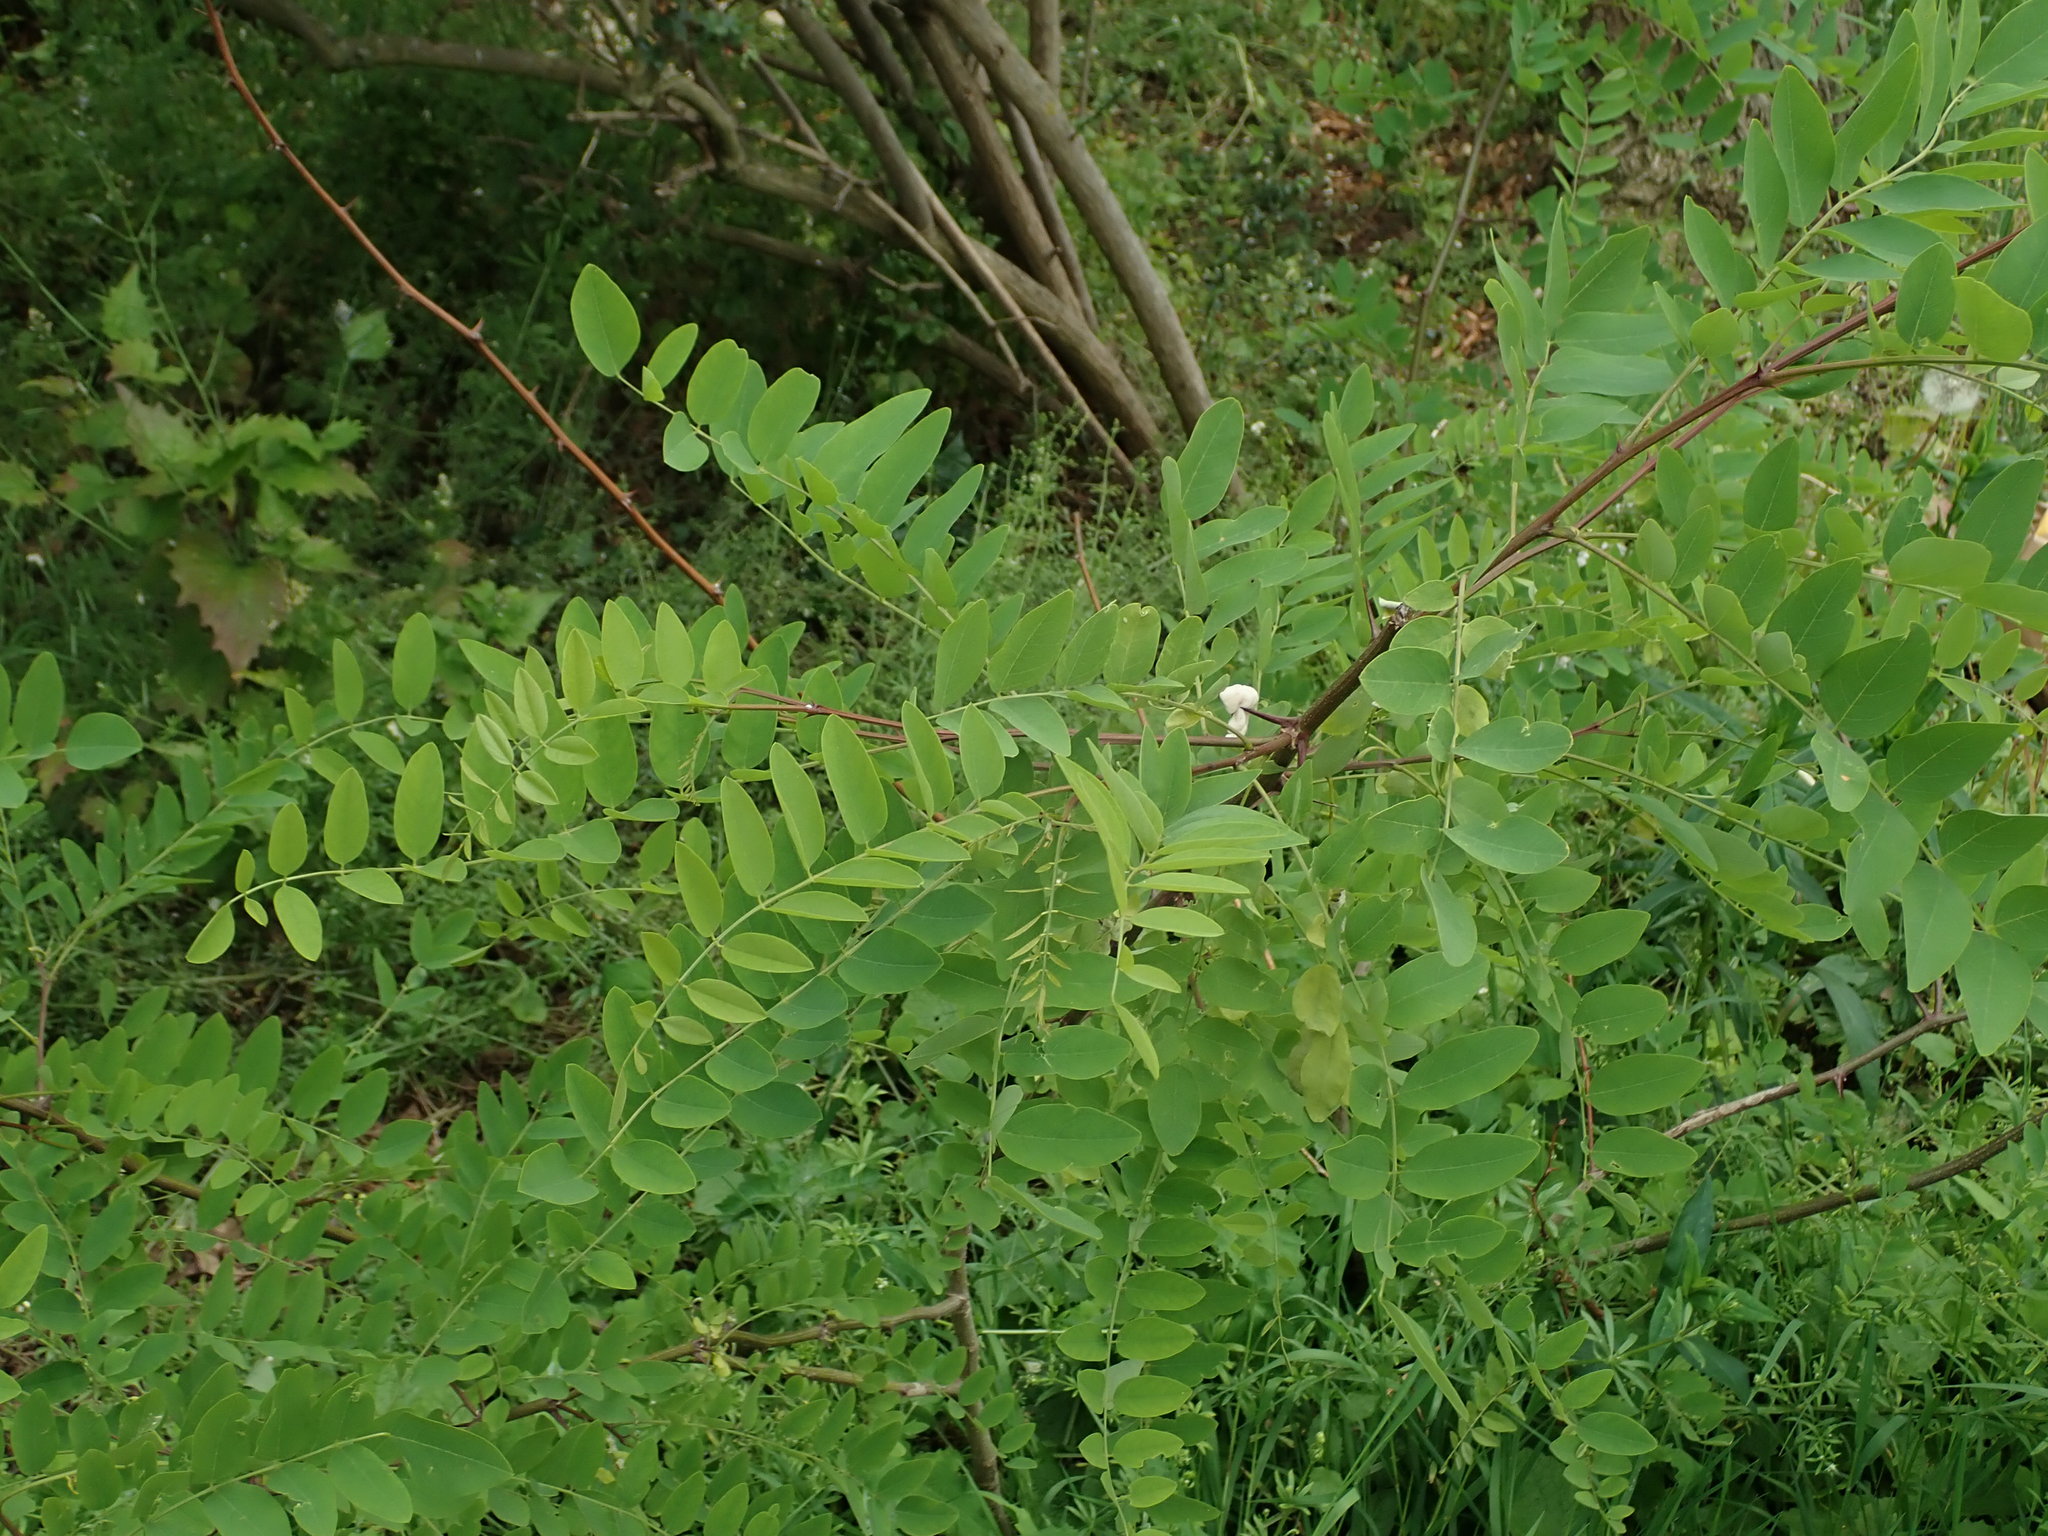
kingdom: Plantae
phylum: Tracheophyta
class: Magnoliopsida
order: Fabales
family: Fabaceae
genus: Robinia
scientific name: Robinia pseudoacacia
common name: Black locust
